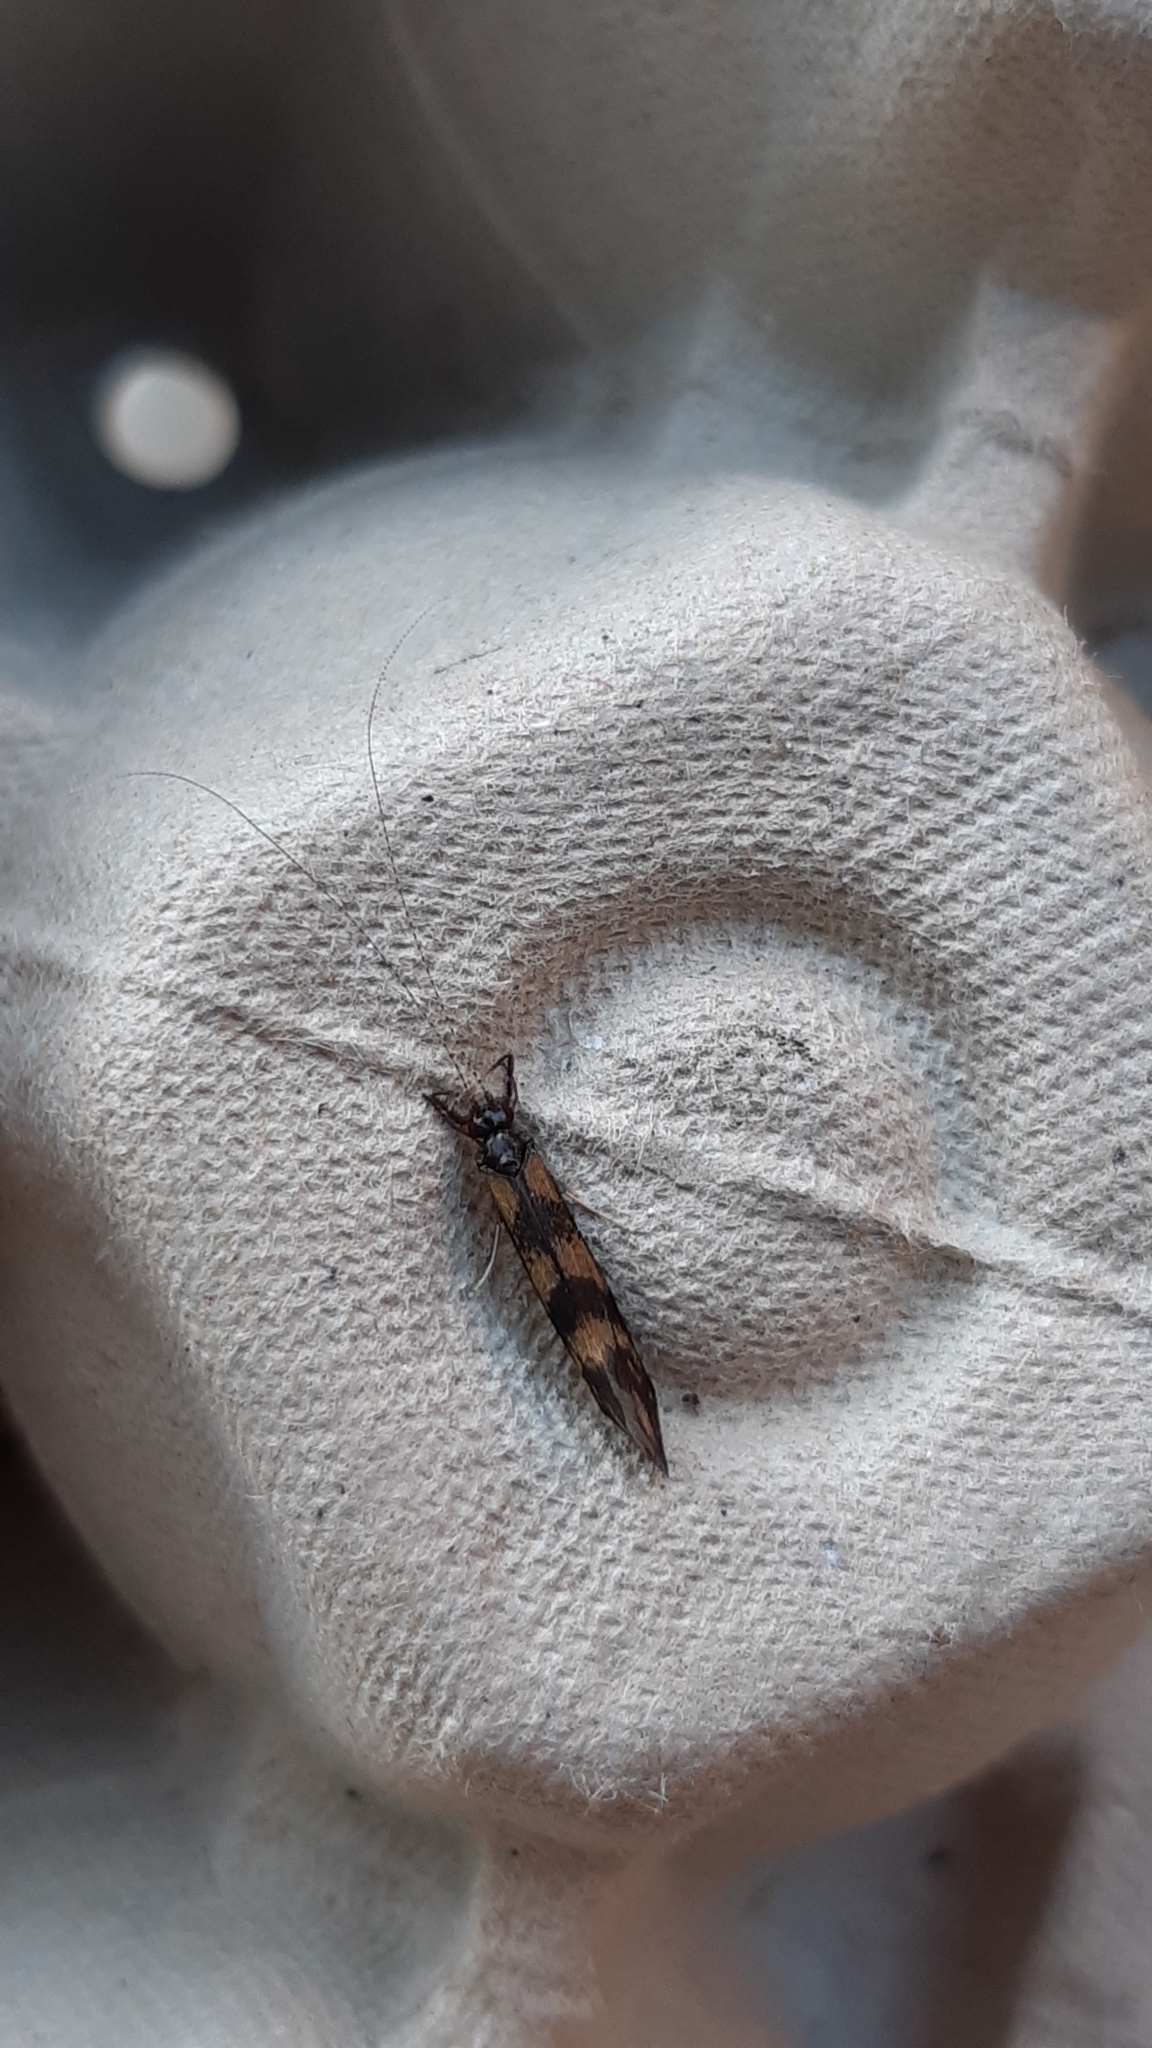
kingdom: Animalia
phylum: Arthropoda
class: Insecta
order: Trichoptera
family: Leptoceridae
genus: Mystacides
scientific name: Mystacides longicornis
